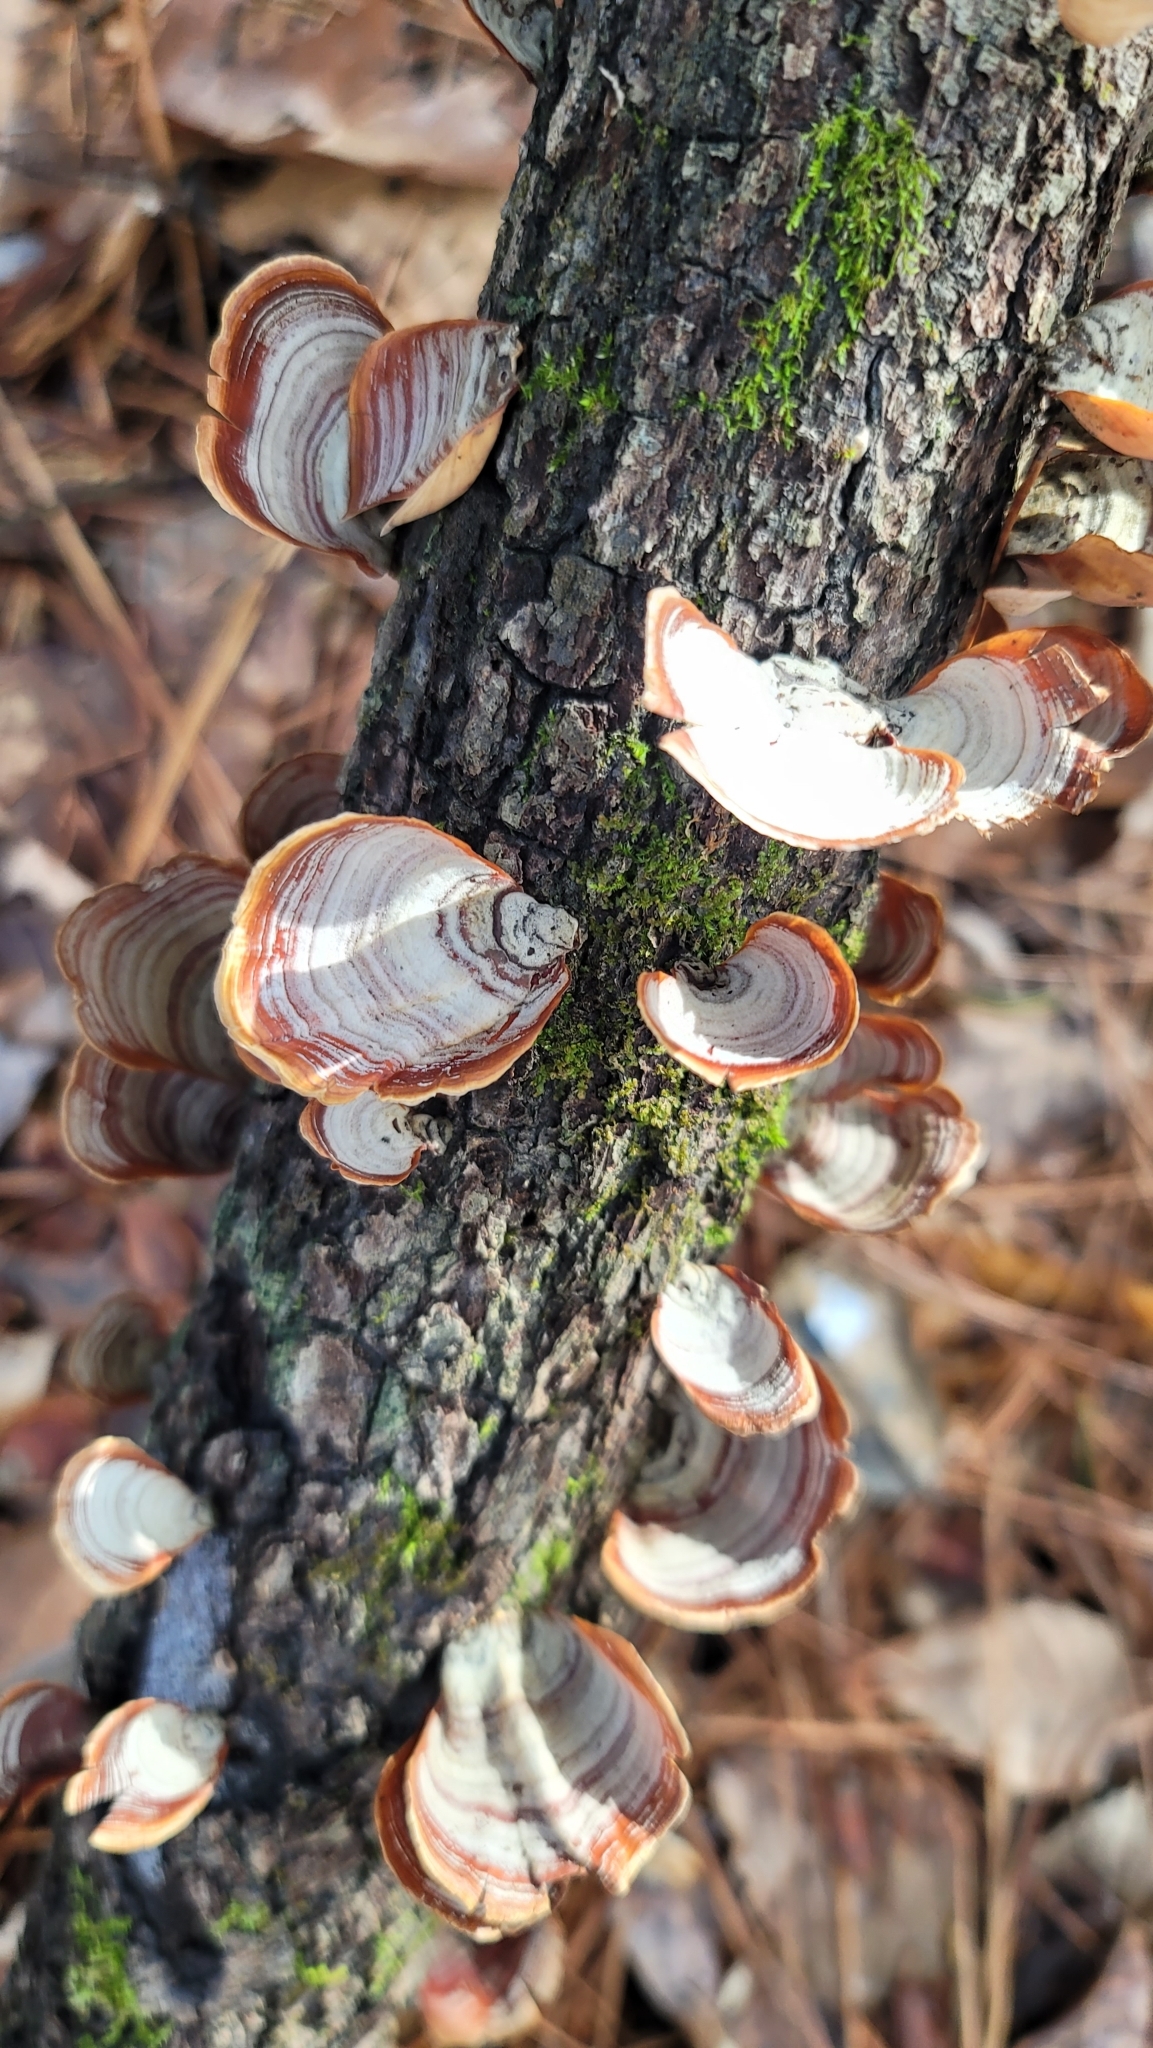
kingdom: Fungi
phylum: Basidiomycota
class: Agaricomycetes
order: Russulales
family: Stereaceae
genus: Stereum
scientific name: Stereum lobatum
